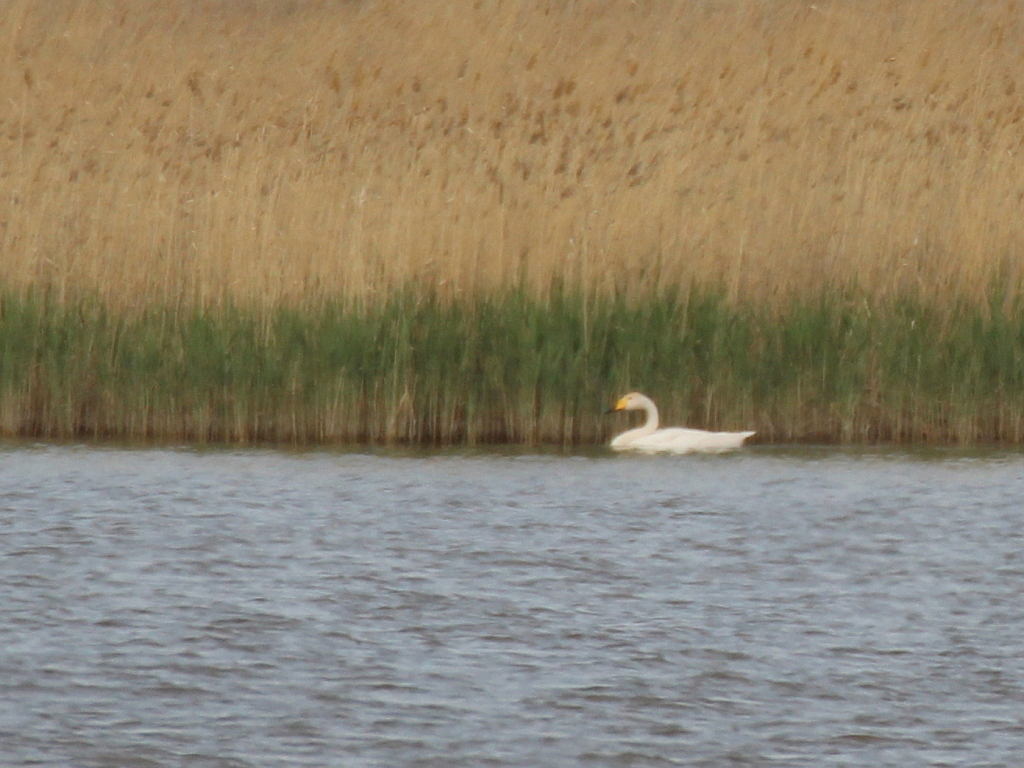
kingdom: Animalia
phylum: Chordata
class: Aves
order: Anseriformes
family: Anatidae
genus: Cygnus
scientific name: Cygnus cygnus
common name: Whooper swan
